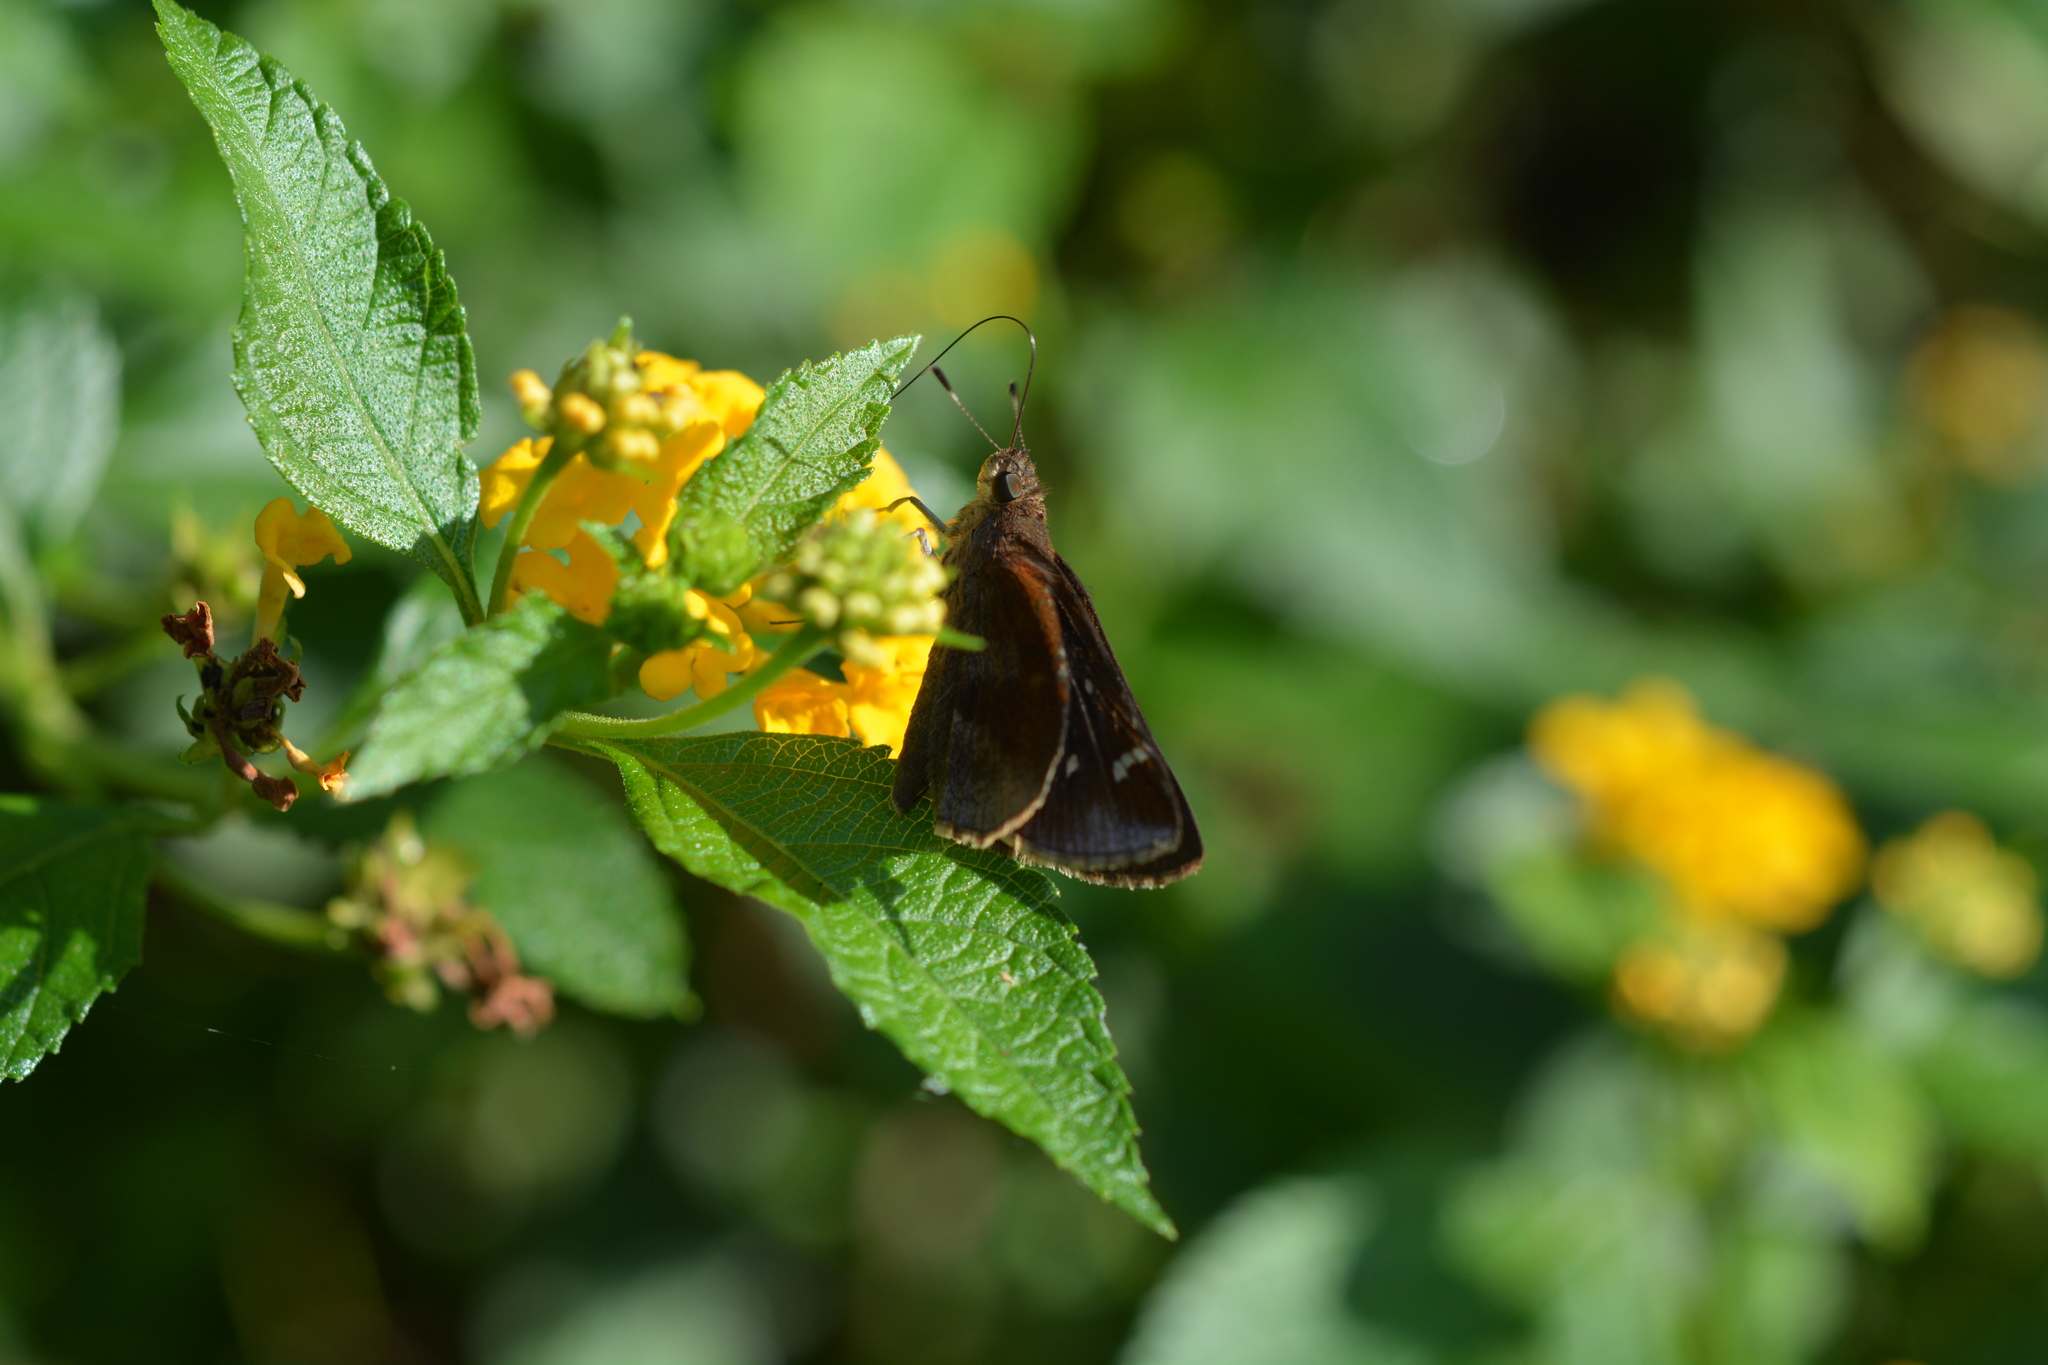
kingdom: Animalia
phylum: Arthropoda
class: Insecta
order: Lepidoptera
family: Hesperiidae
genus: Lerema
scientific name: Lerema accius
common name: Clouded skipper
